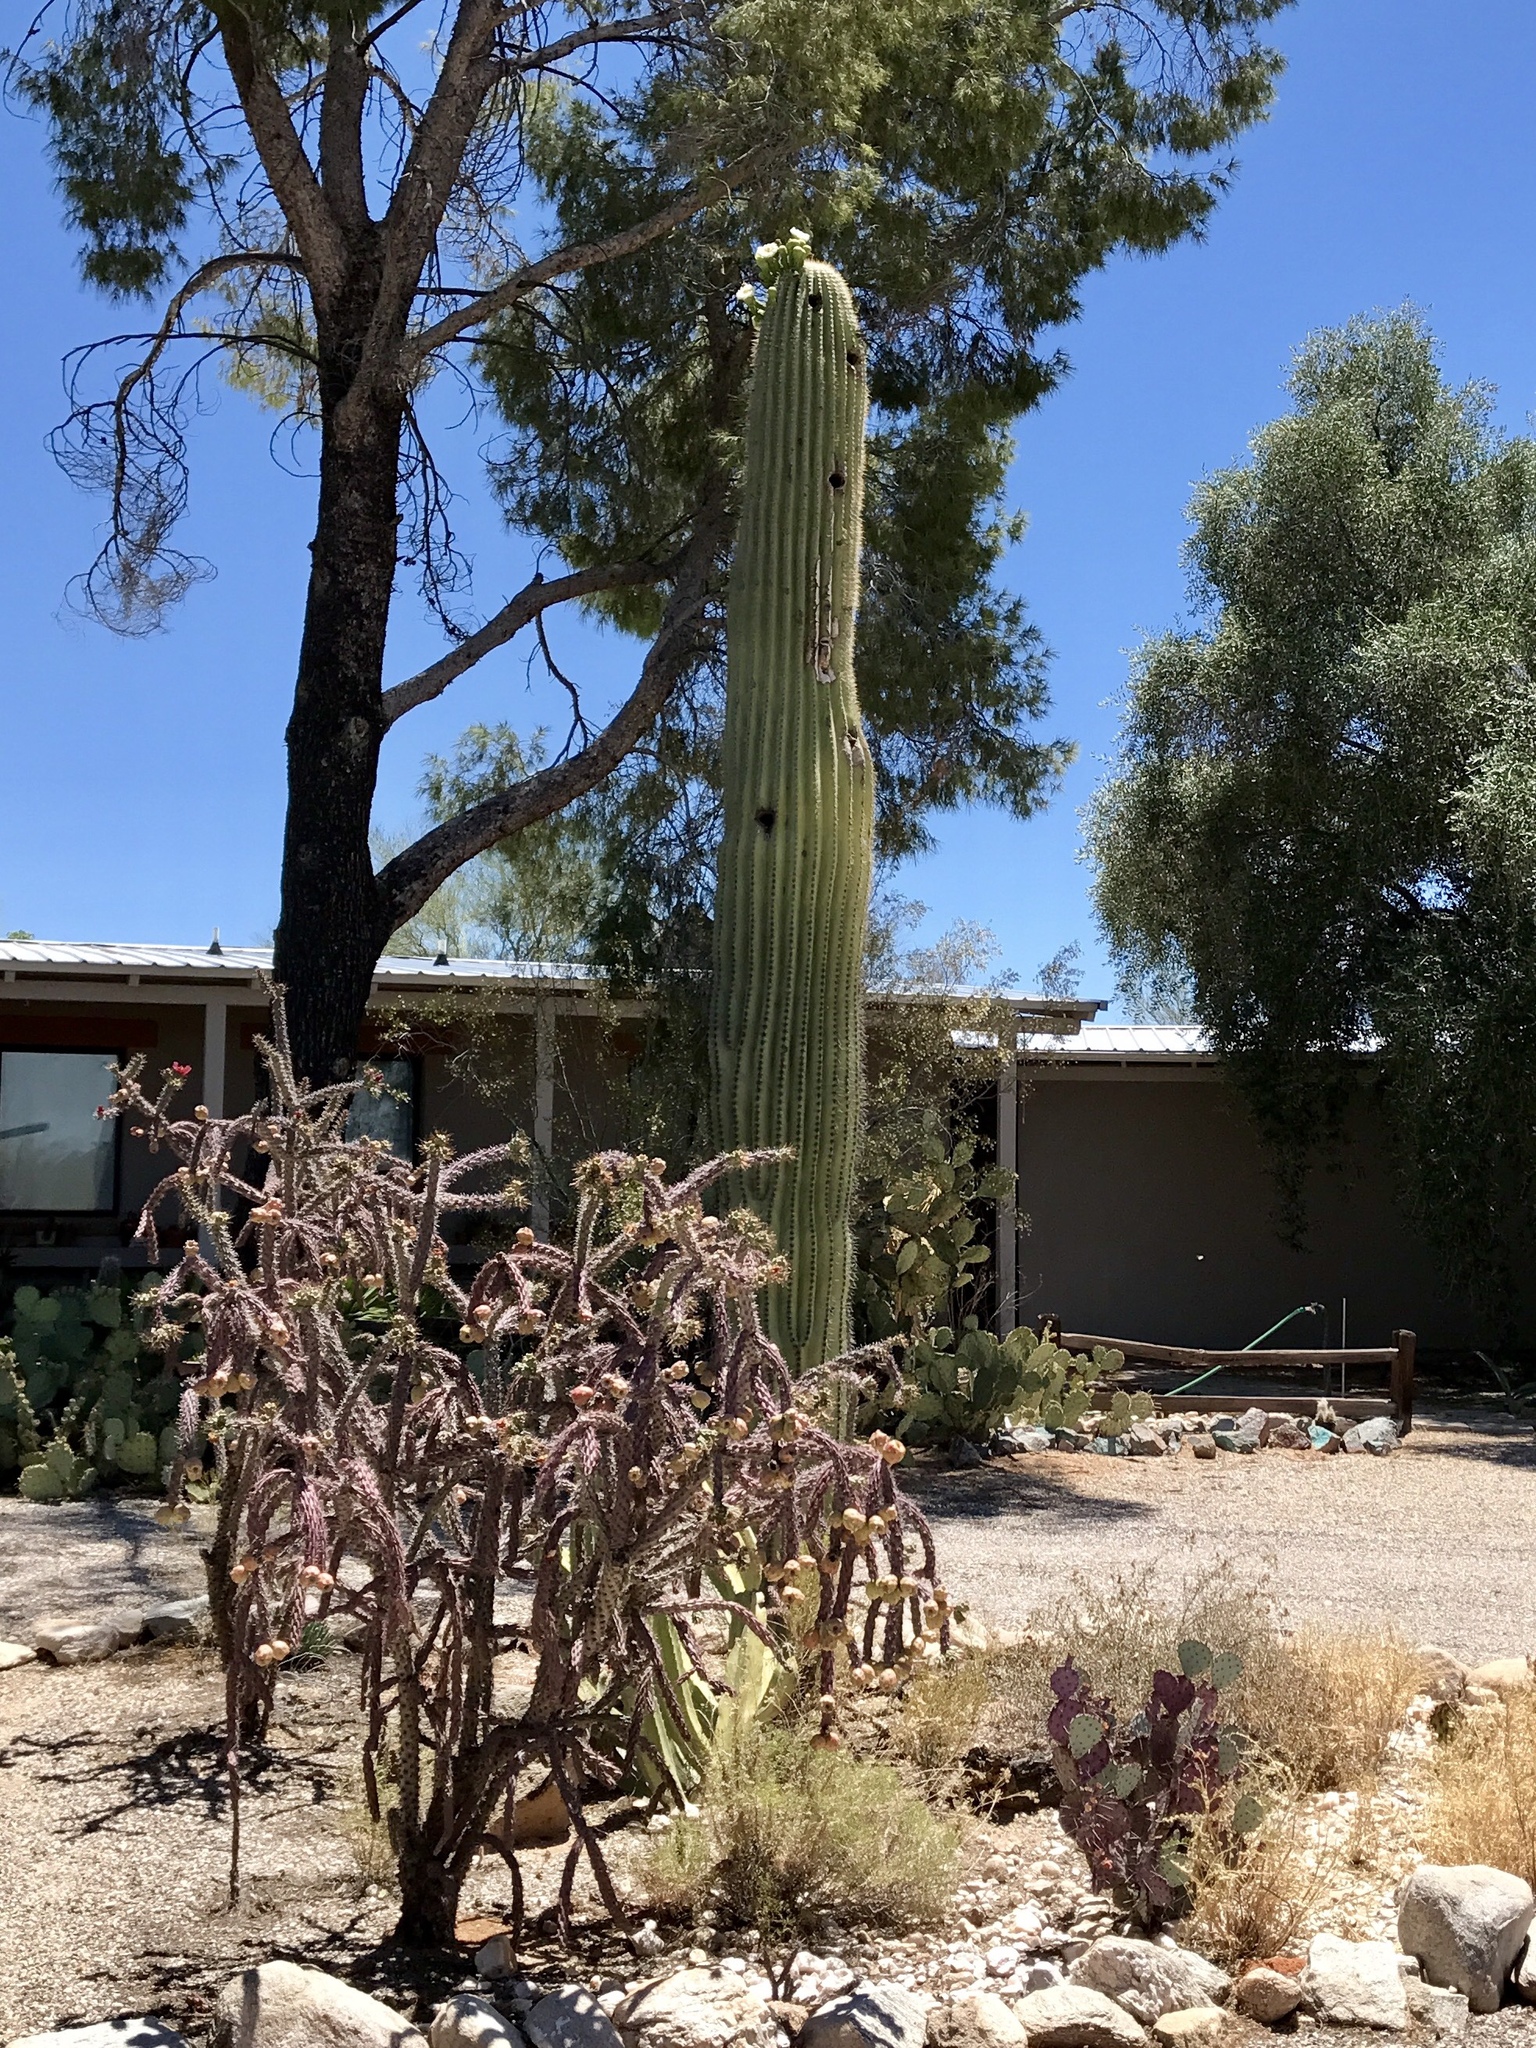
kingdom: Plantae
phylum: Tracheophyta
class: Magnoliopsida
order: Caryophyllales
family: Cactaceae
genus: Carnegiea
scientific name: Carnegiea gigantea
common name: Saguaro
